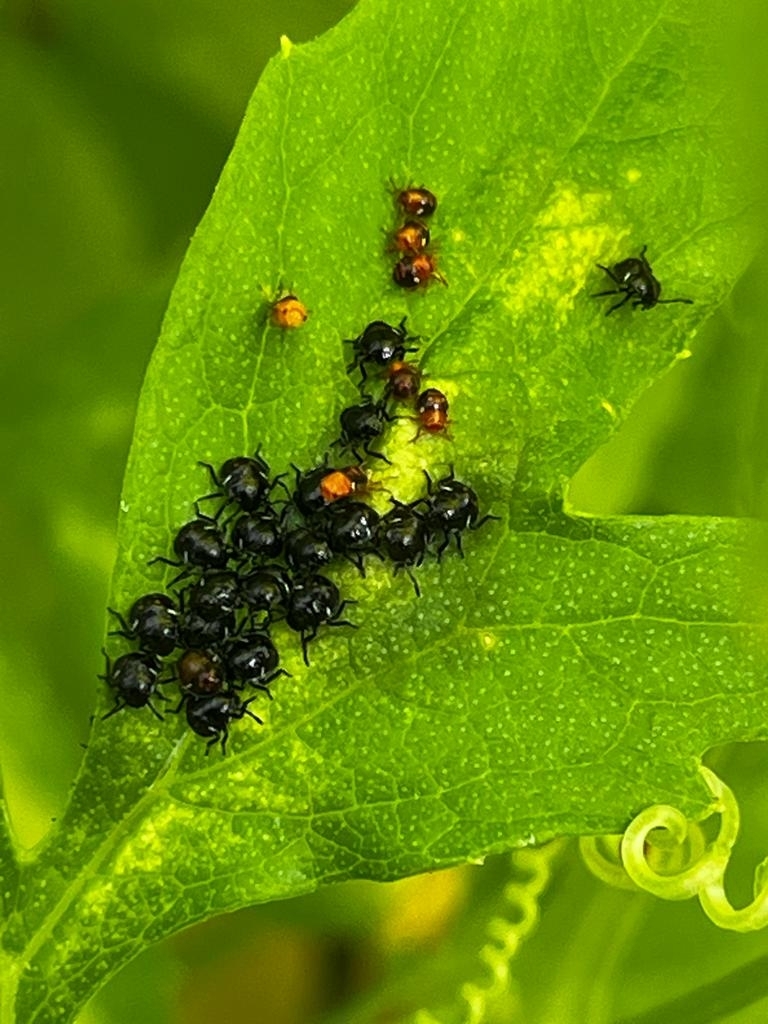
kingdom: Animalia
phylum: Arthropoda
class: Insecta
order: Hemiptera
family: Pentatomidae
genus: Nezara
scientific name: Nezara viridula
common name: Southern green stink bug
